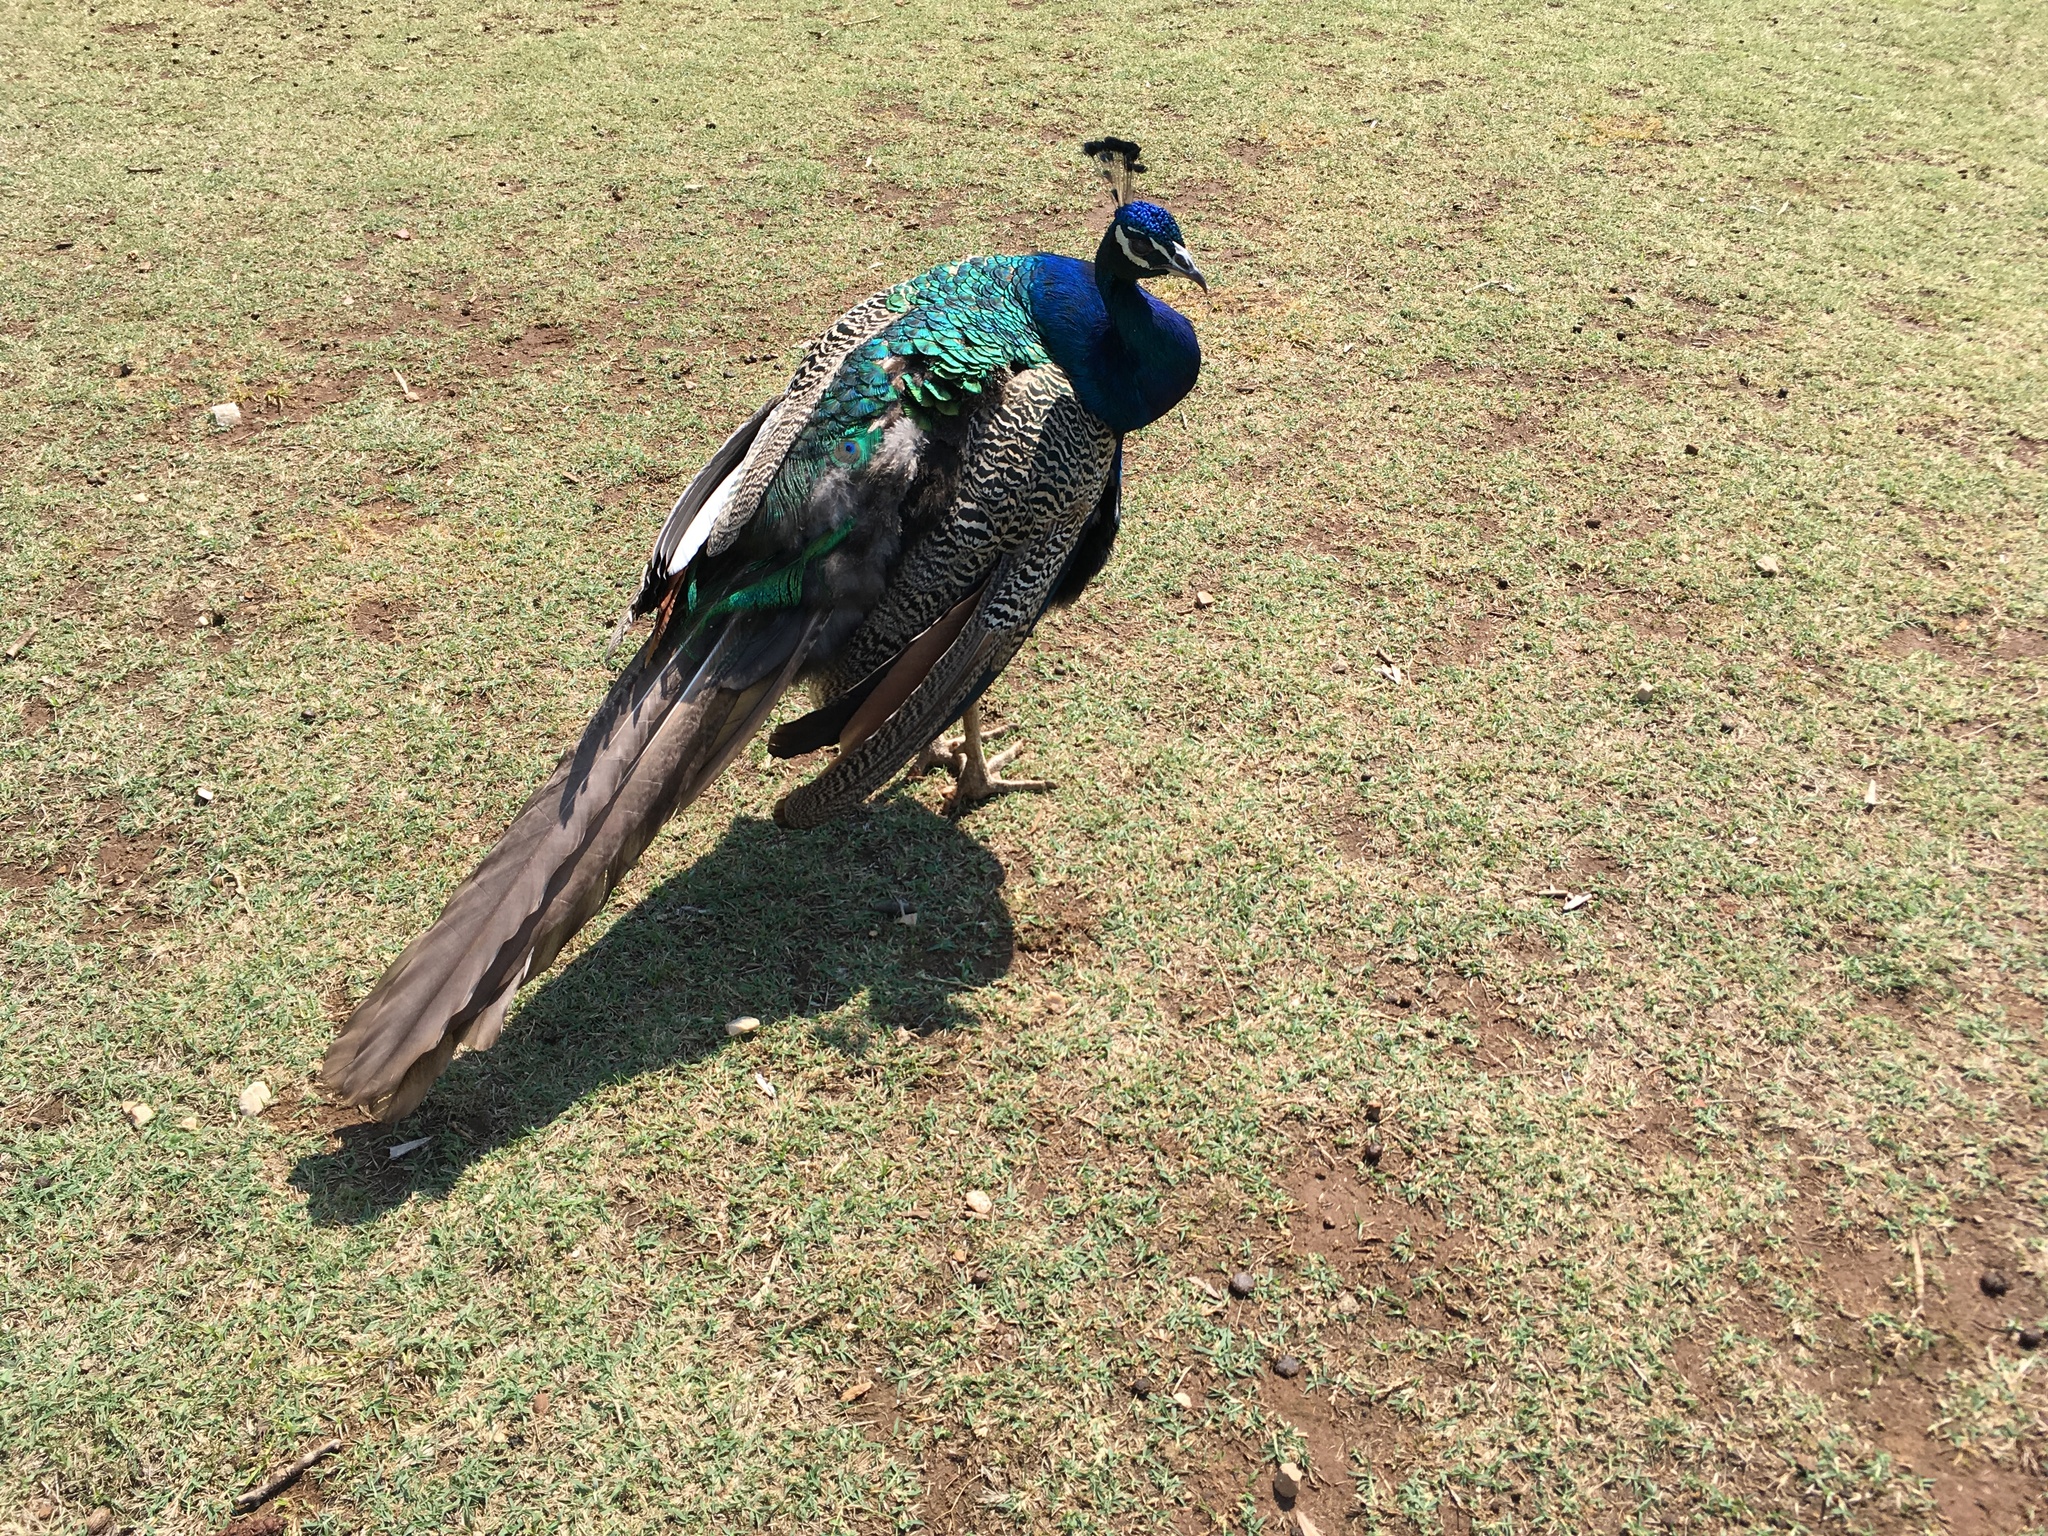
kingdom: Animalia
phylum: Chordata
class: Aves
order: Galliformes
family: Phasianidae
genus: Pavo
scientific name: Pavo cristatus
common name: Indian peafowl
